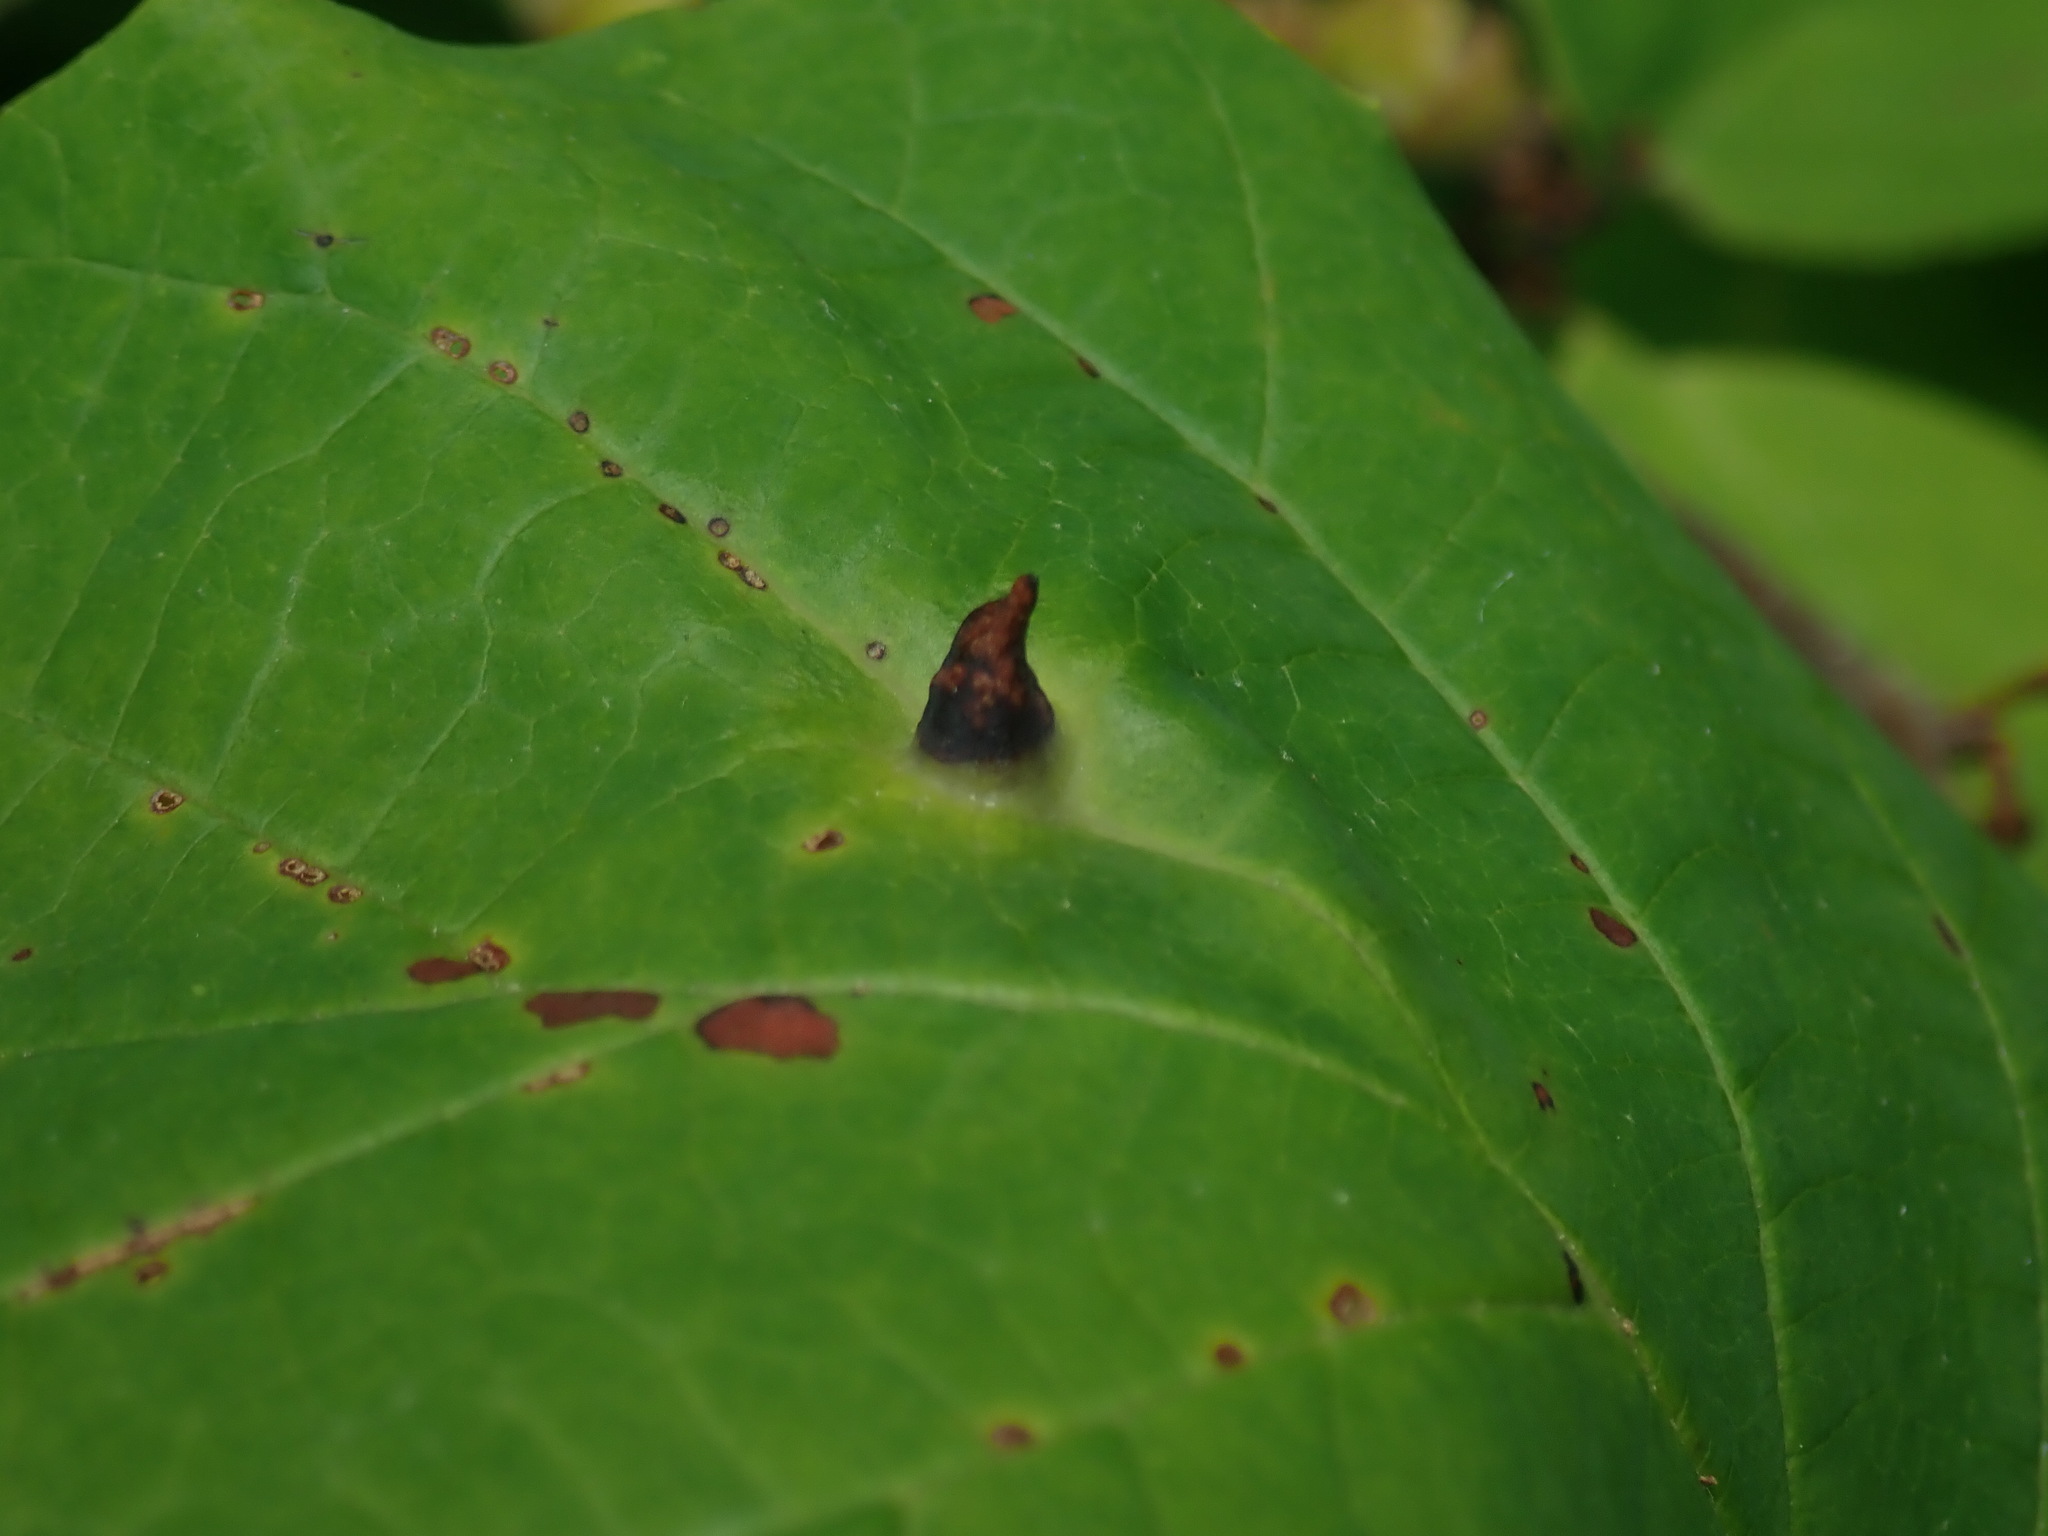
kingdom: Animalia
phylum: Arthropoda
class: Insecta
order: Hemiptera
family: Aphididae
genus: Hormaphis
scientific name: Hormaphis hamamelidis
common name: Witch-hazel cone gall aphid
